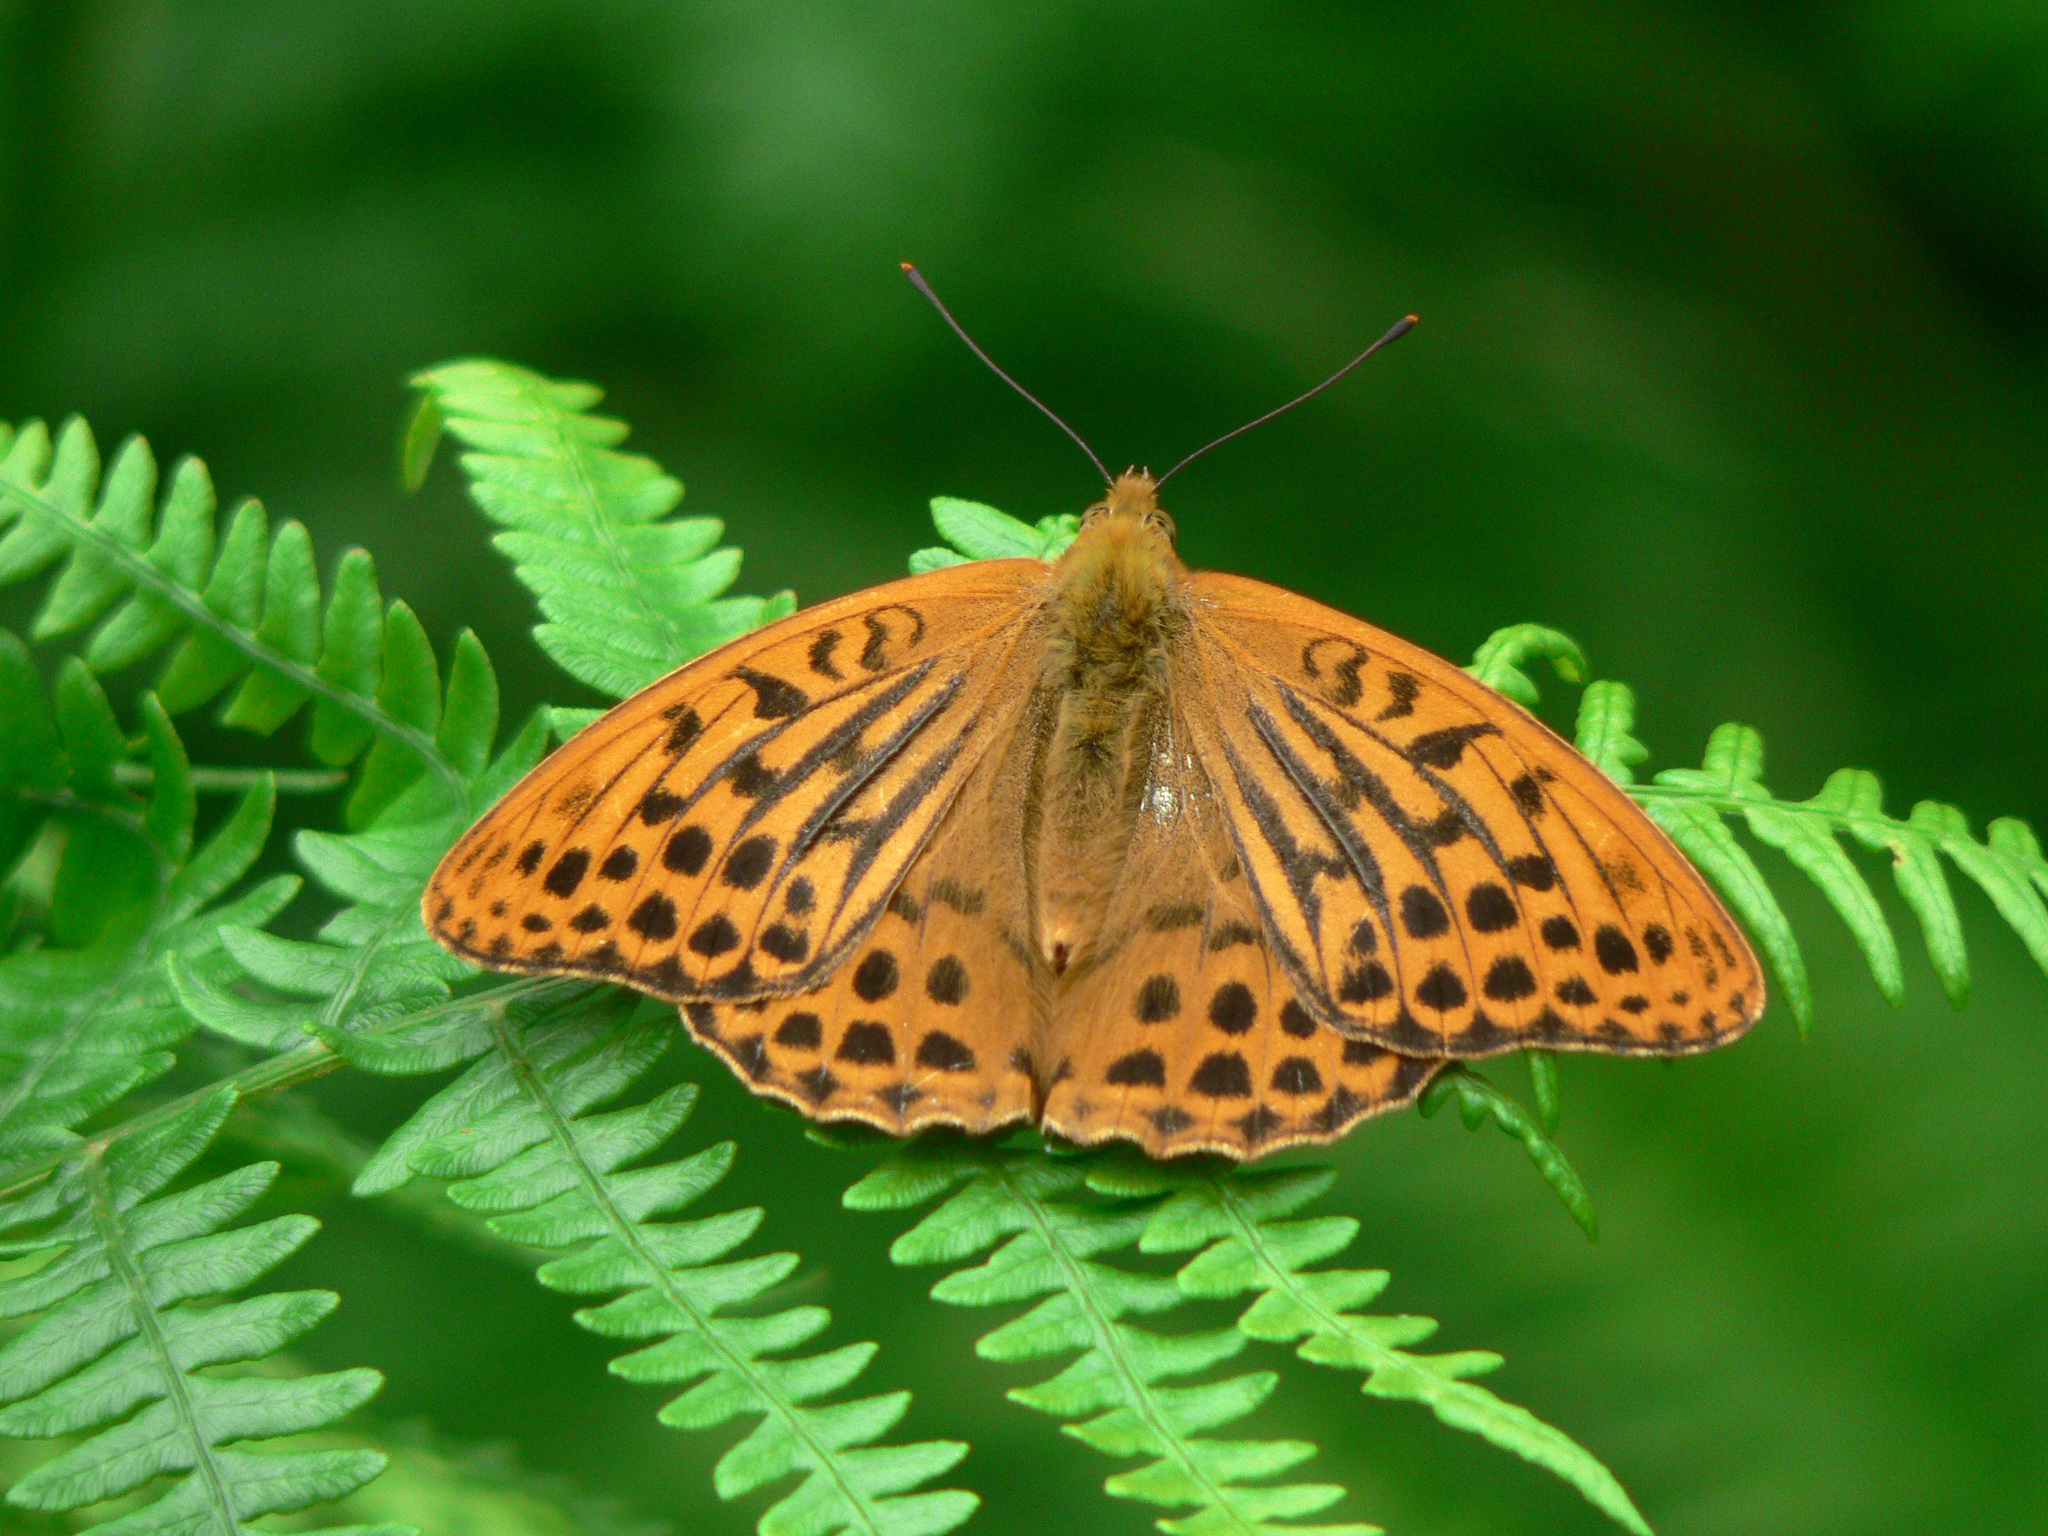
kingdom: Animalia
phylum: Arthropoda
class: Insecta
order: Lepidoptera
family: Nymphalidae
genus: Argynnis
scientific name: Argynnis paphia
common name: Silver-washed fritillary
